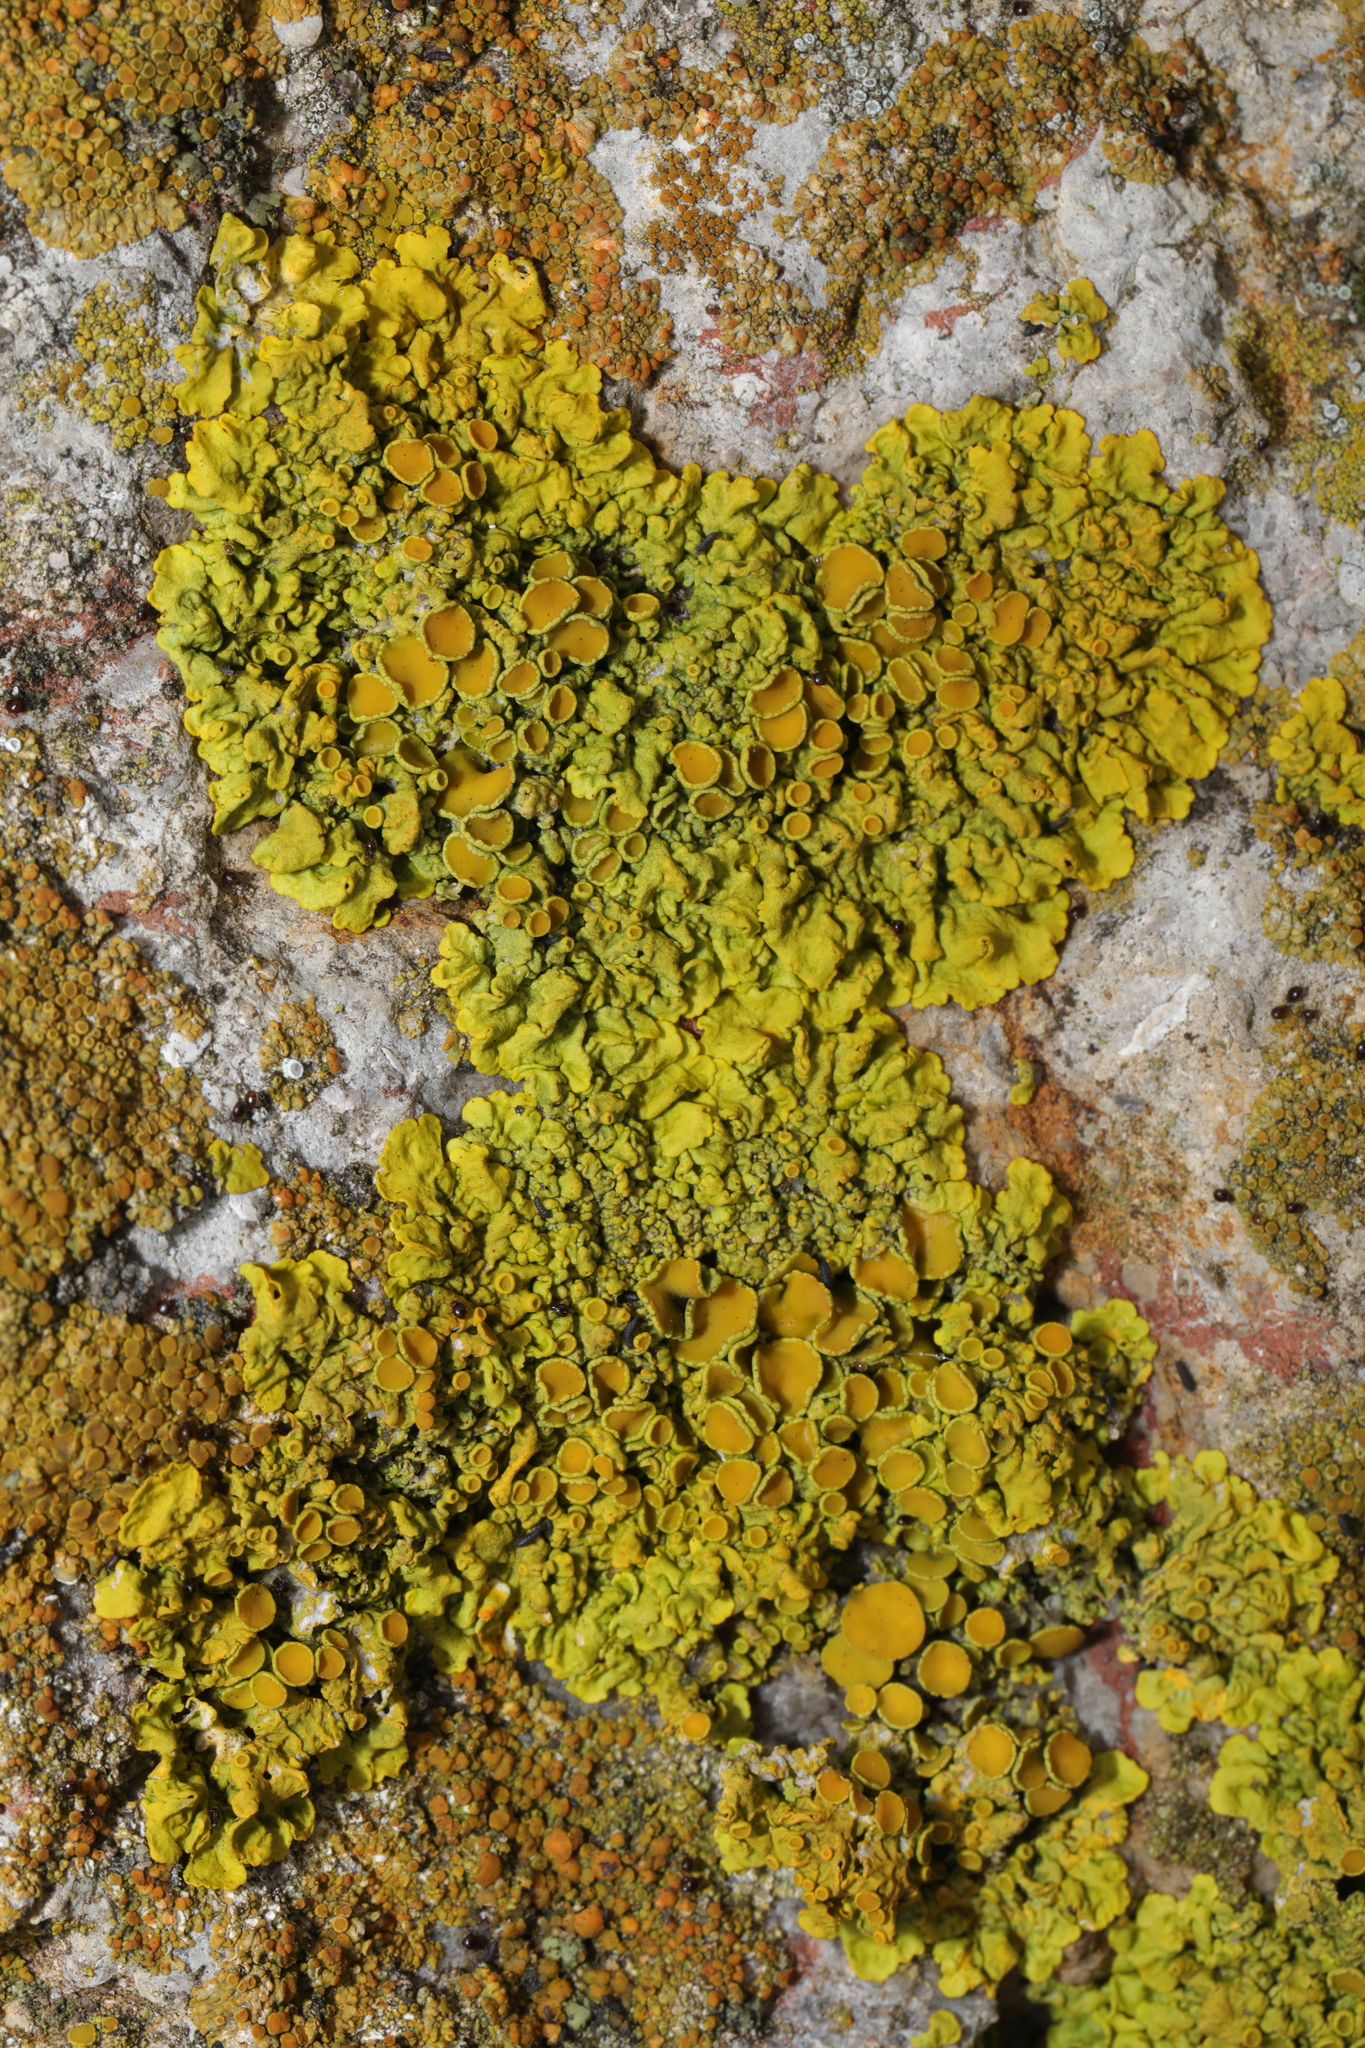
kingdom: Fungi
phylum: Ascomycota
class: Lecanoromycetes
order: Teloschistales
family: Teloschistaceae
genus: Xanthoria
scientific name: Xanthoria parietina
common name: Common orange lichen
